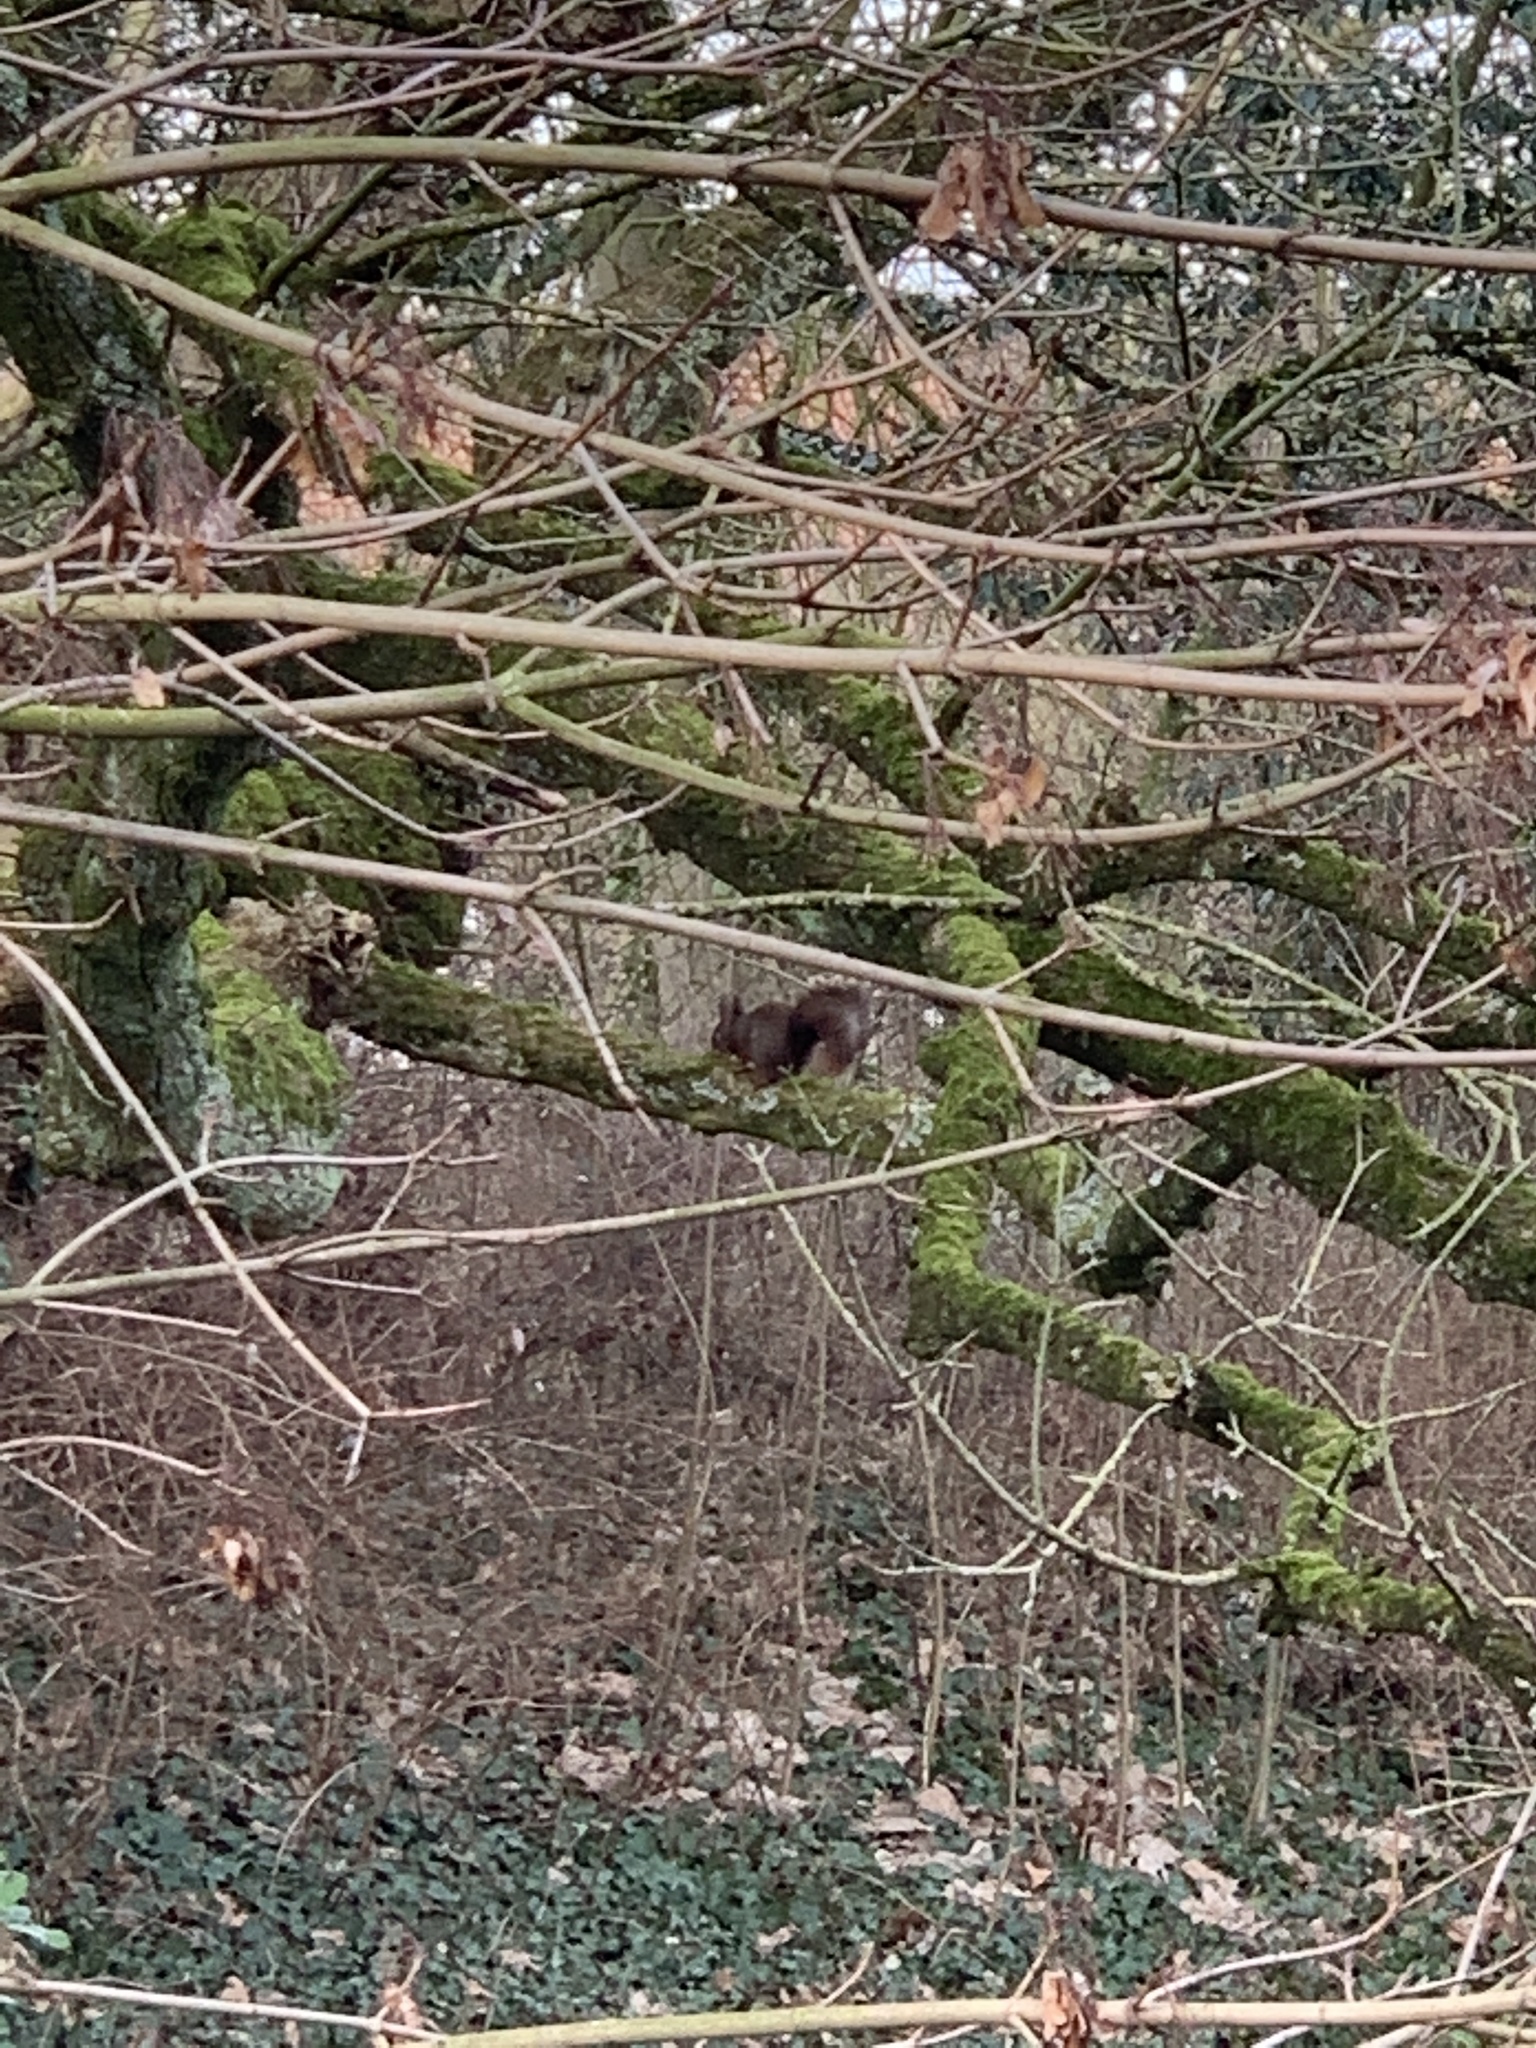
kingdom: Animalia
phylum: Chordata
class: Mammalia
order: Rodentia
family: Sciuridae
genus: Sciurus
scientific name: Sciurus vulgaris
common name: Eurasian red squirrel
